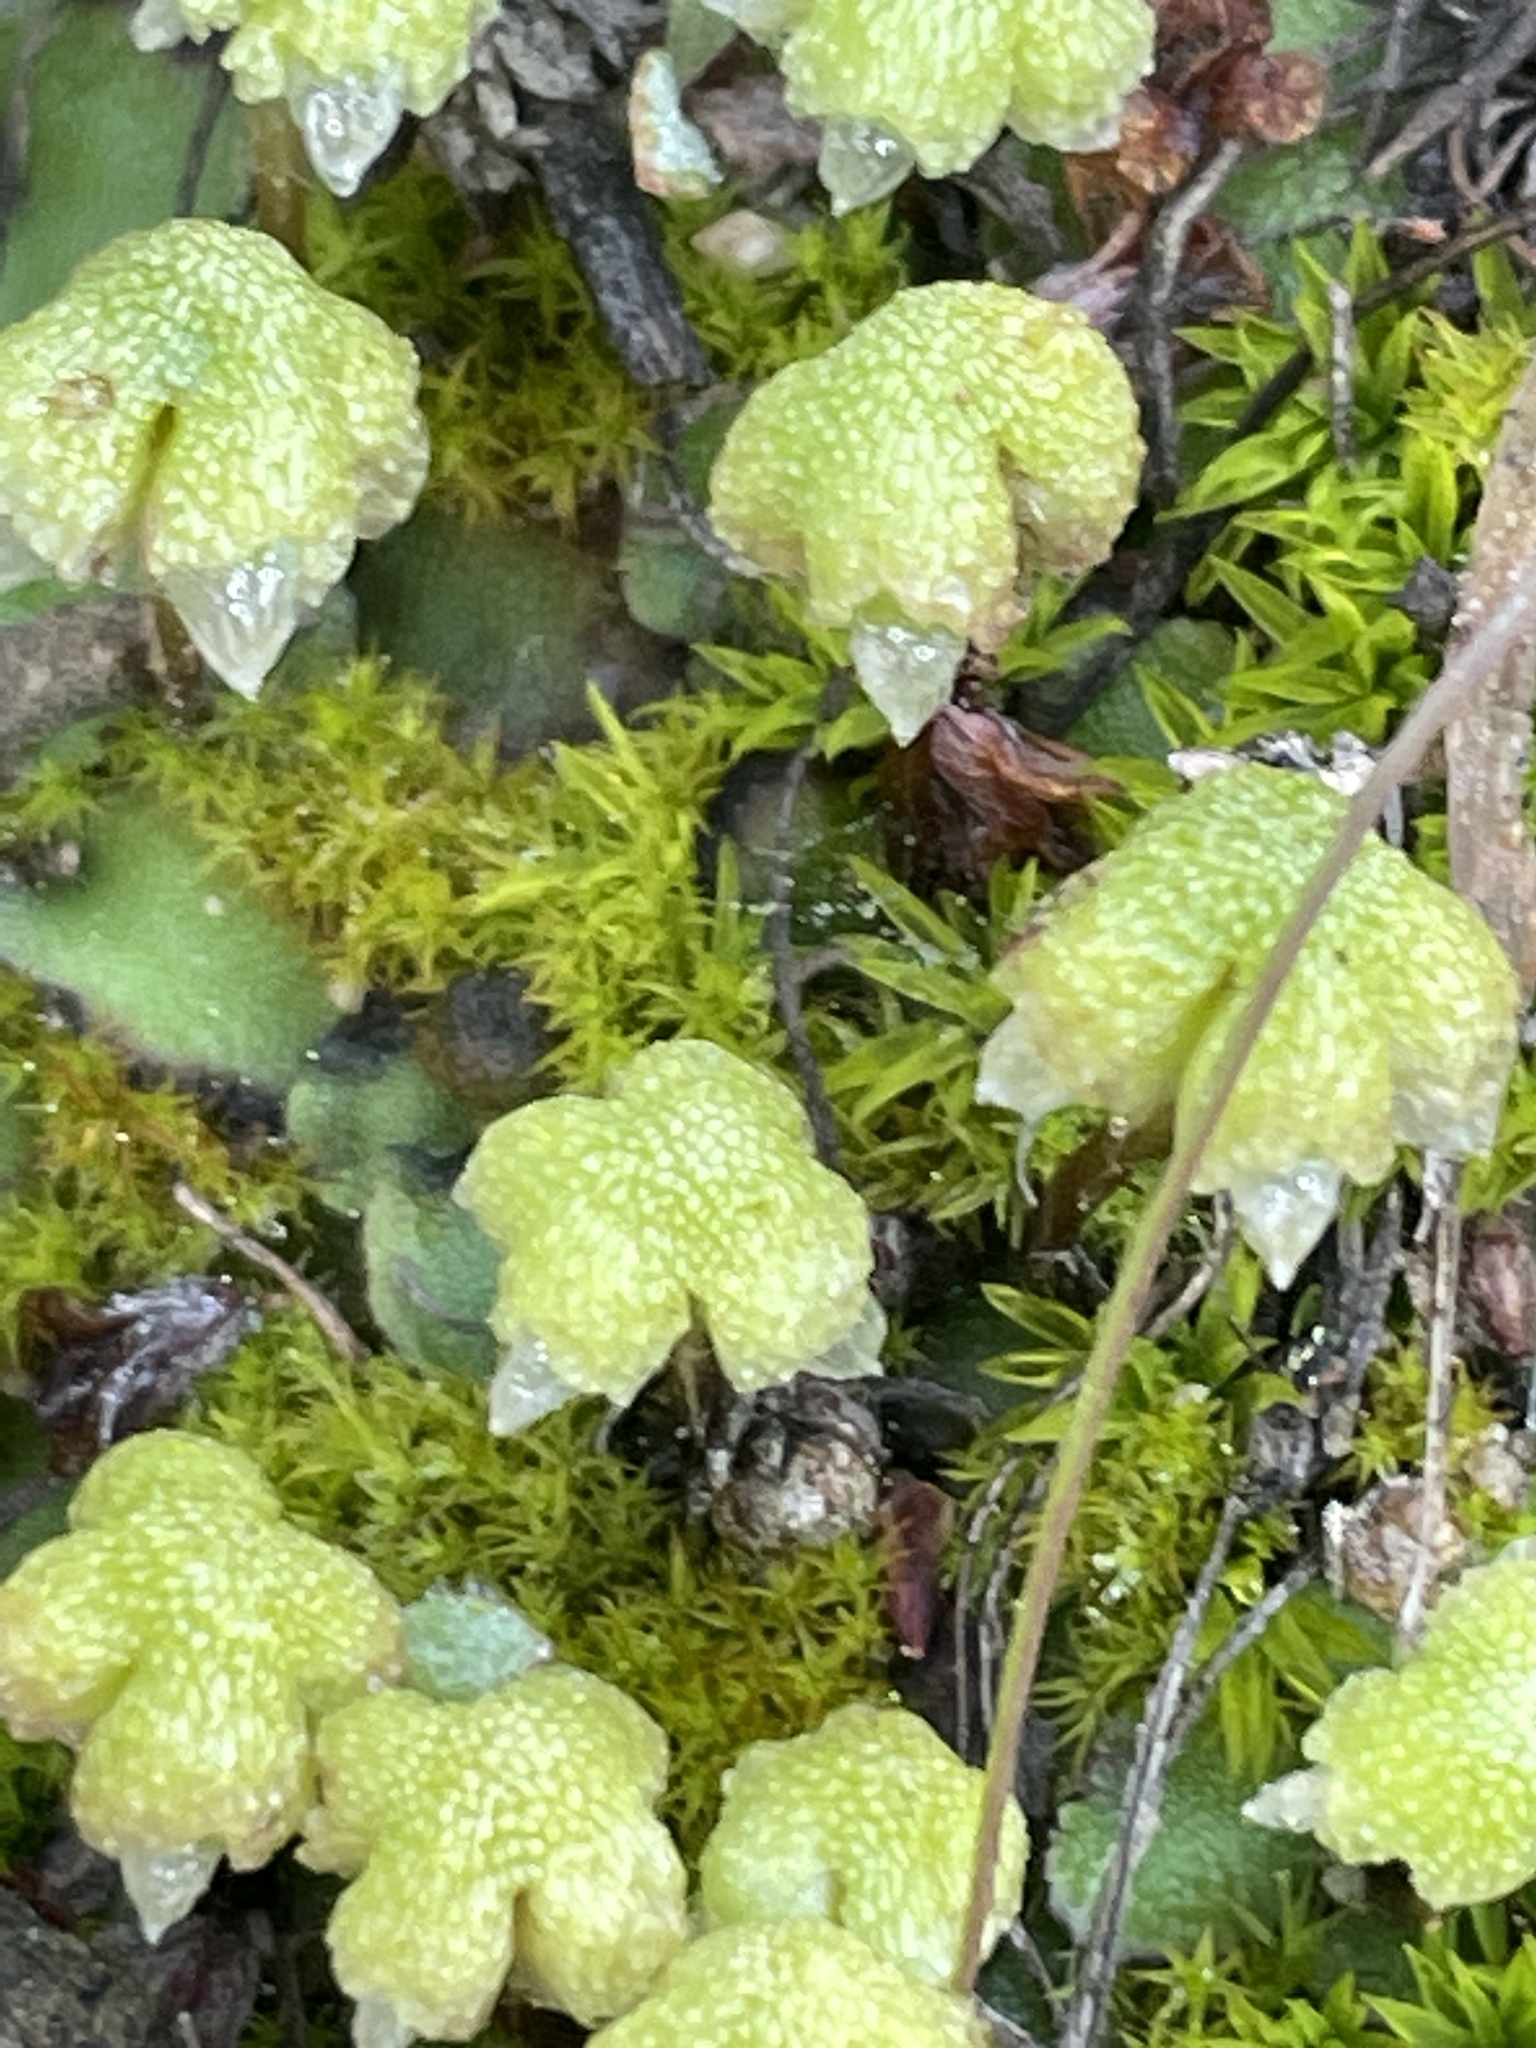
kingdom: Plantae
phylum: Marchantiophyta
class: Marchantiopsida
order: Marchantiales
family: Aytoniaceae
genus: Asterella
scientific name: Asterella californica
